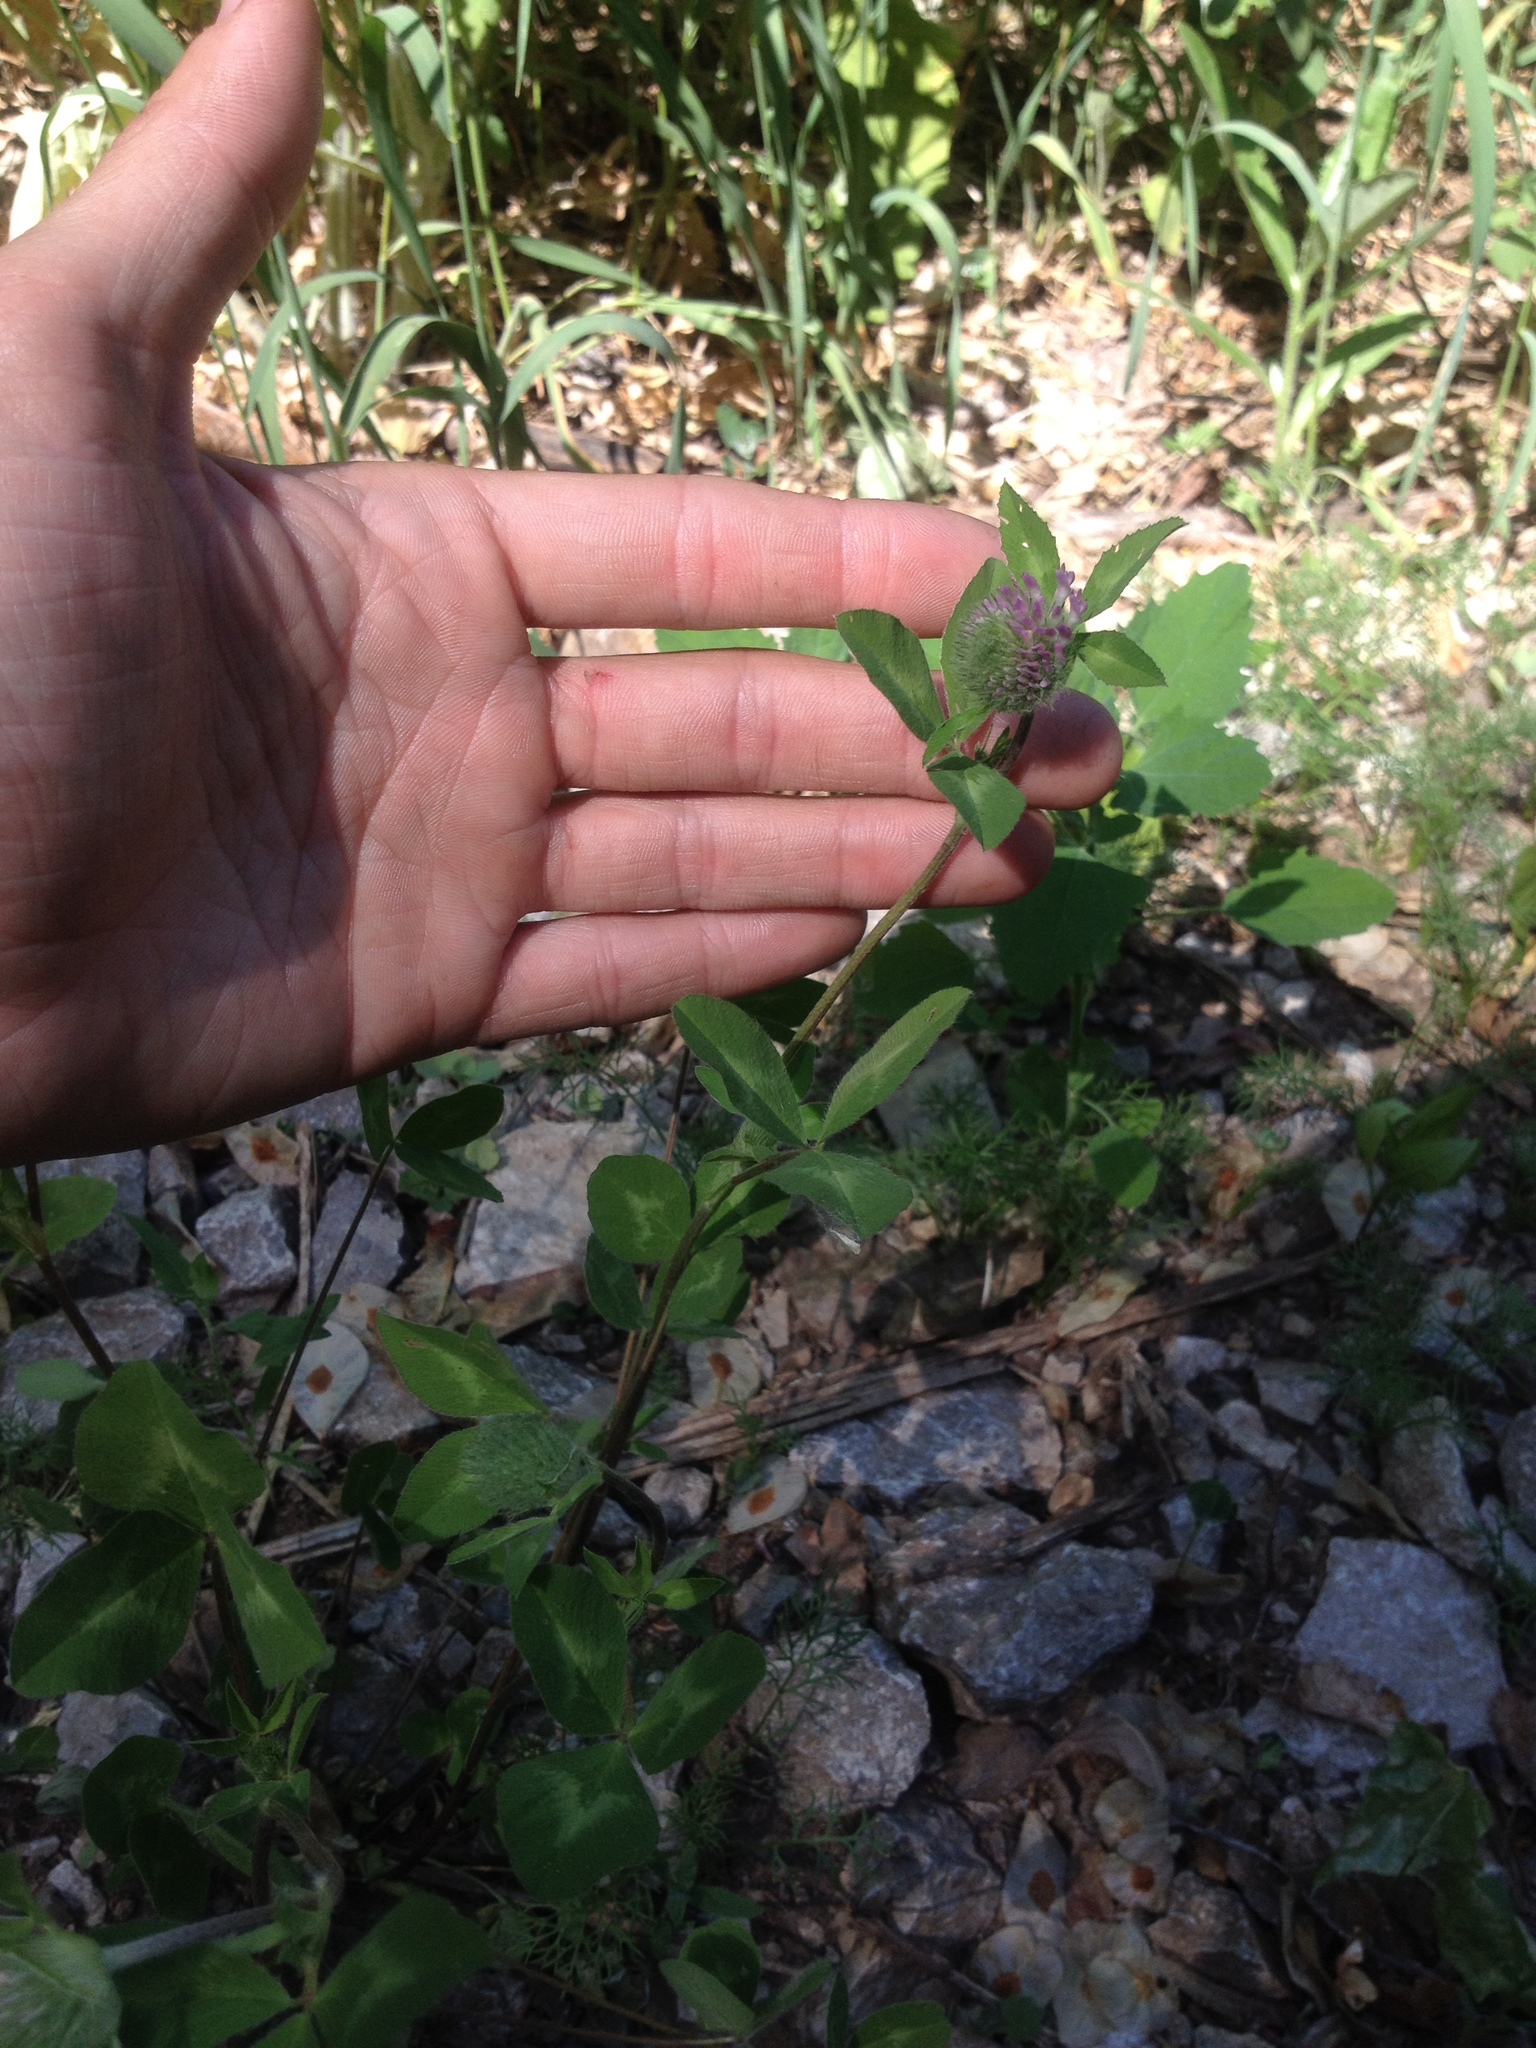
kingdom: Plantae
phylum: Tracheophyta
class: Magnoliopsida
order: Fabales
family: Fabaceae
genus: Trifolium
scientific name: Trifolium pratense
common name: Red clover
